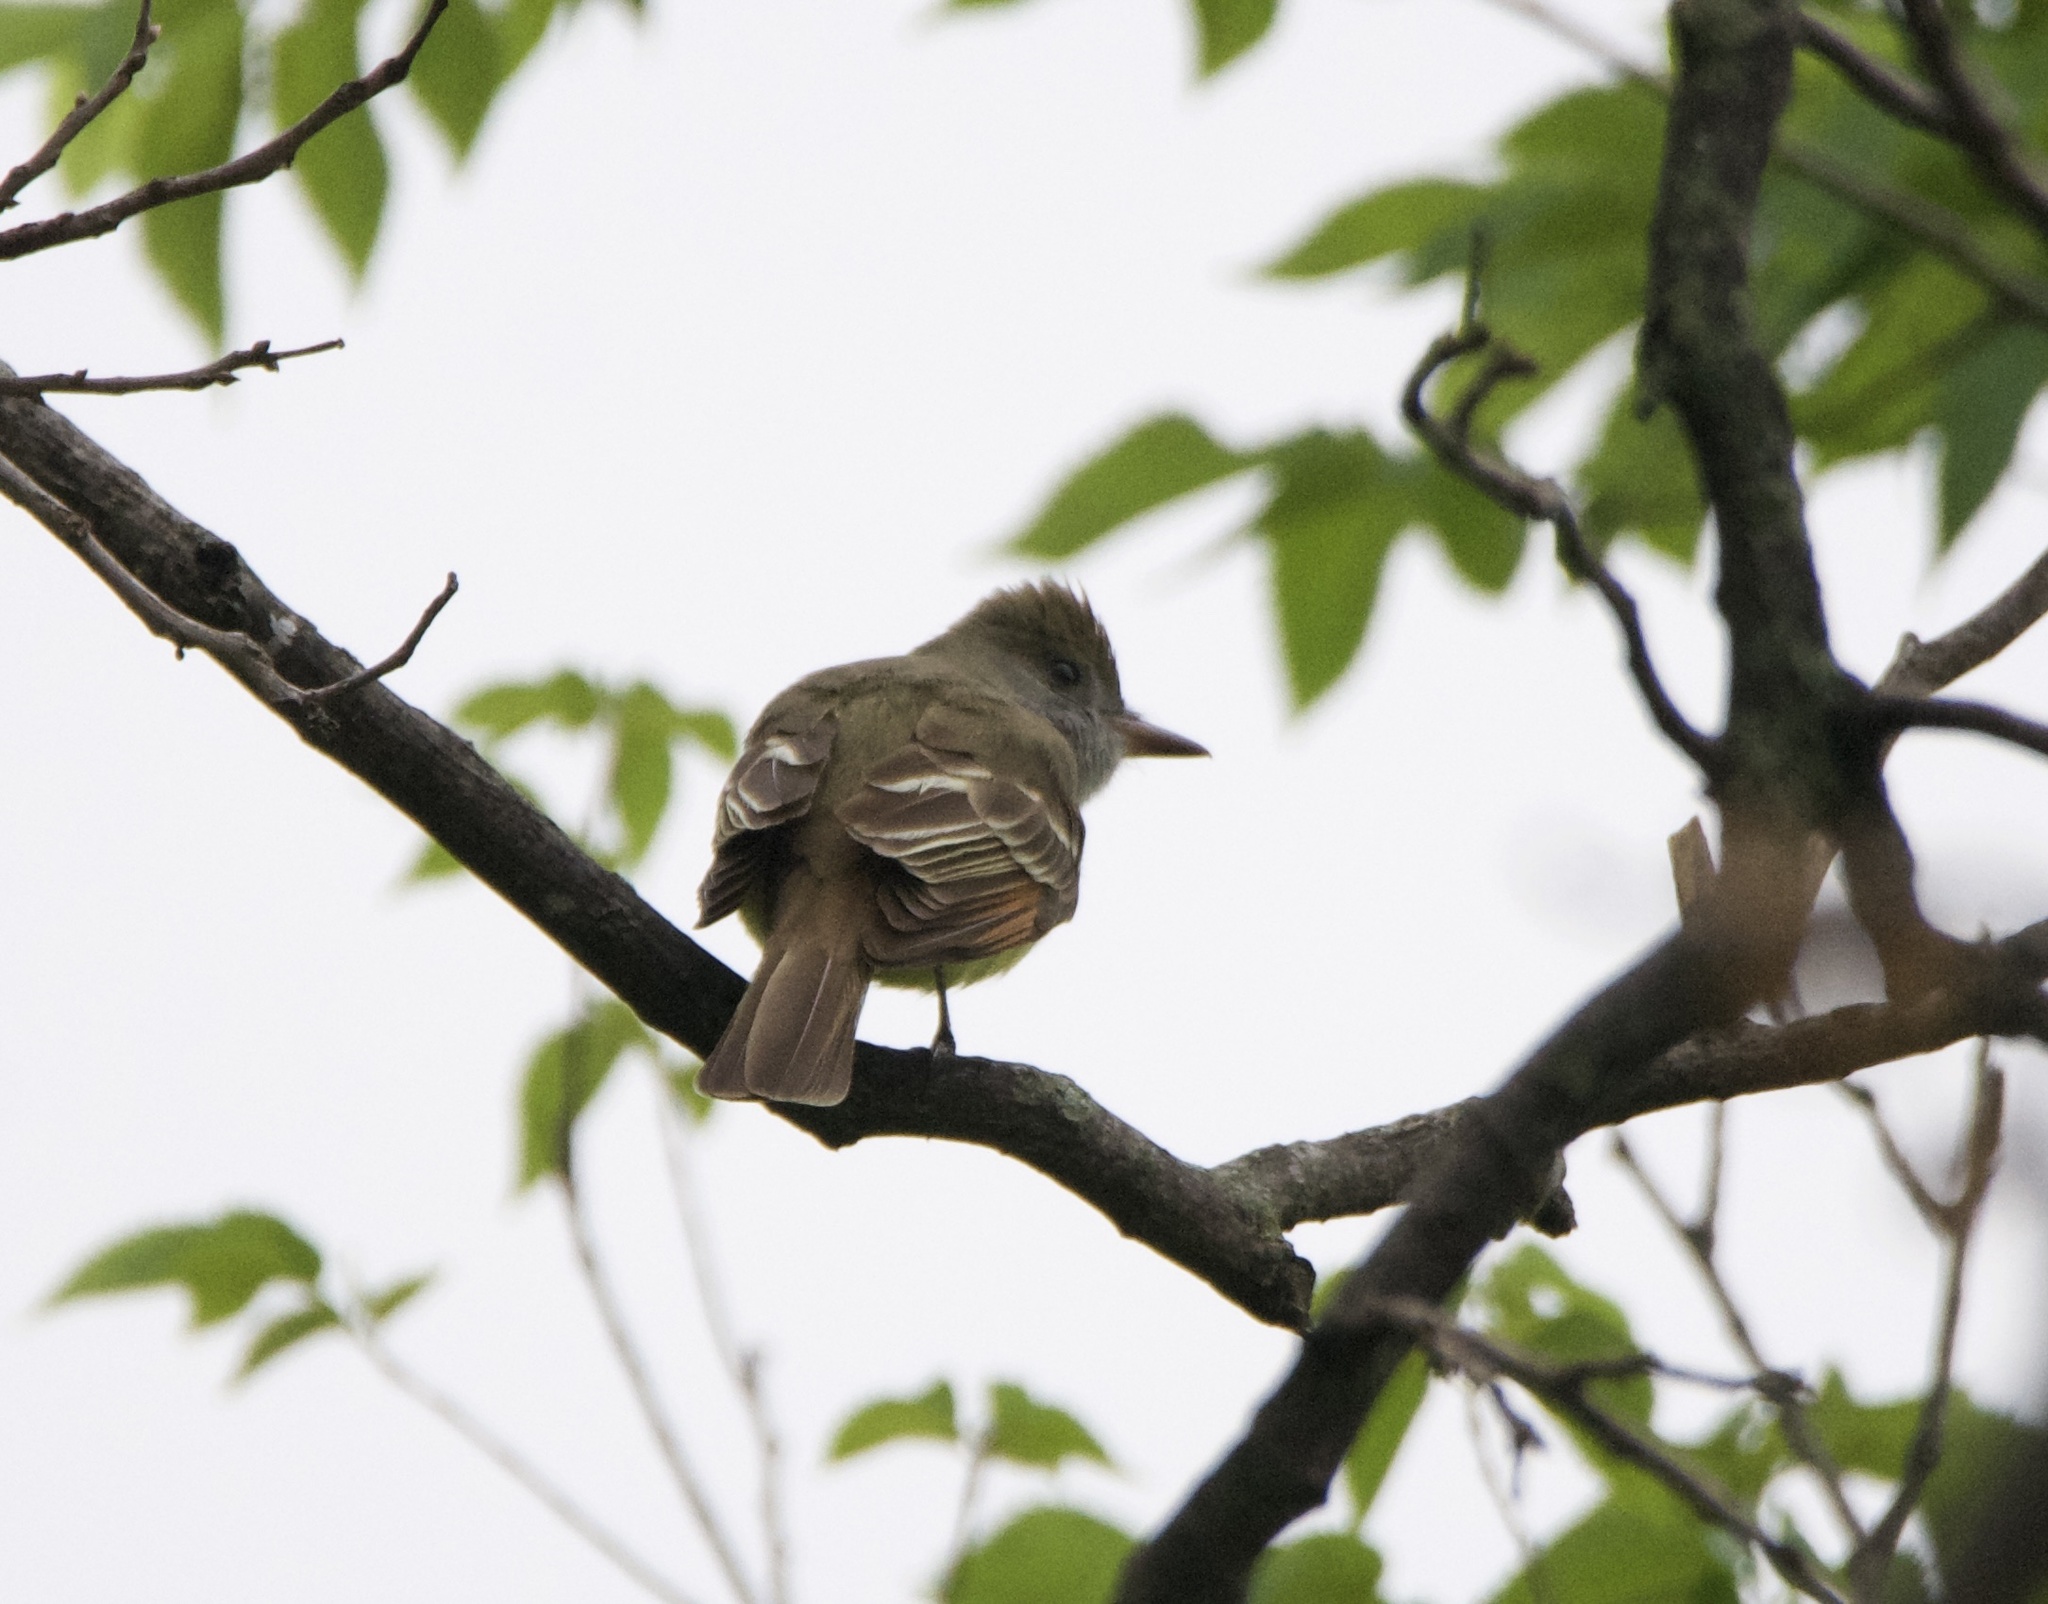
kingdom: Animalia
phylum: Chordata
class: Aves
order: Passeriformes
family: Tyrannidae
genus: Myiarchus
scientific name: Myiarchus crinitus
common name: Great crested flycatcher
